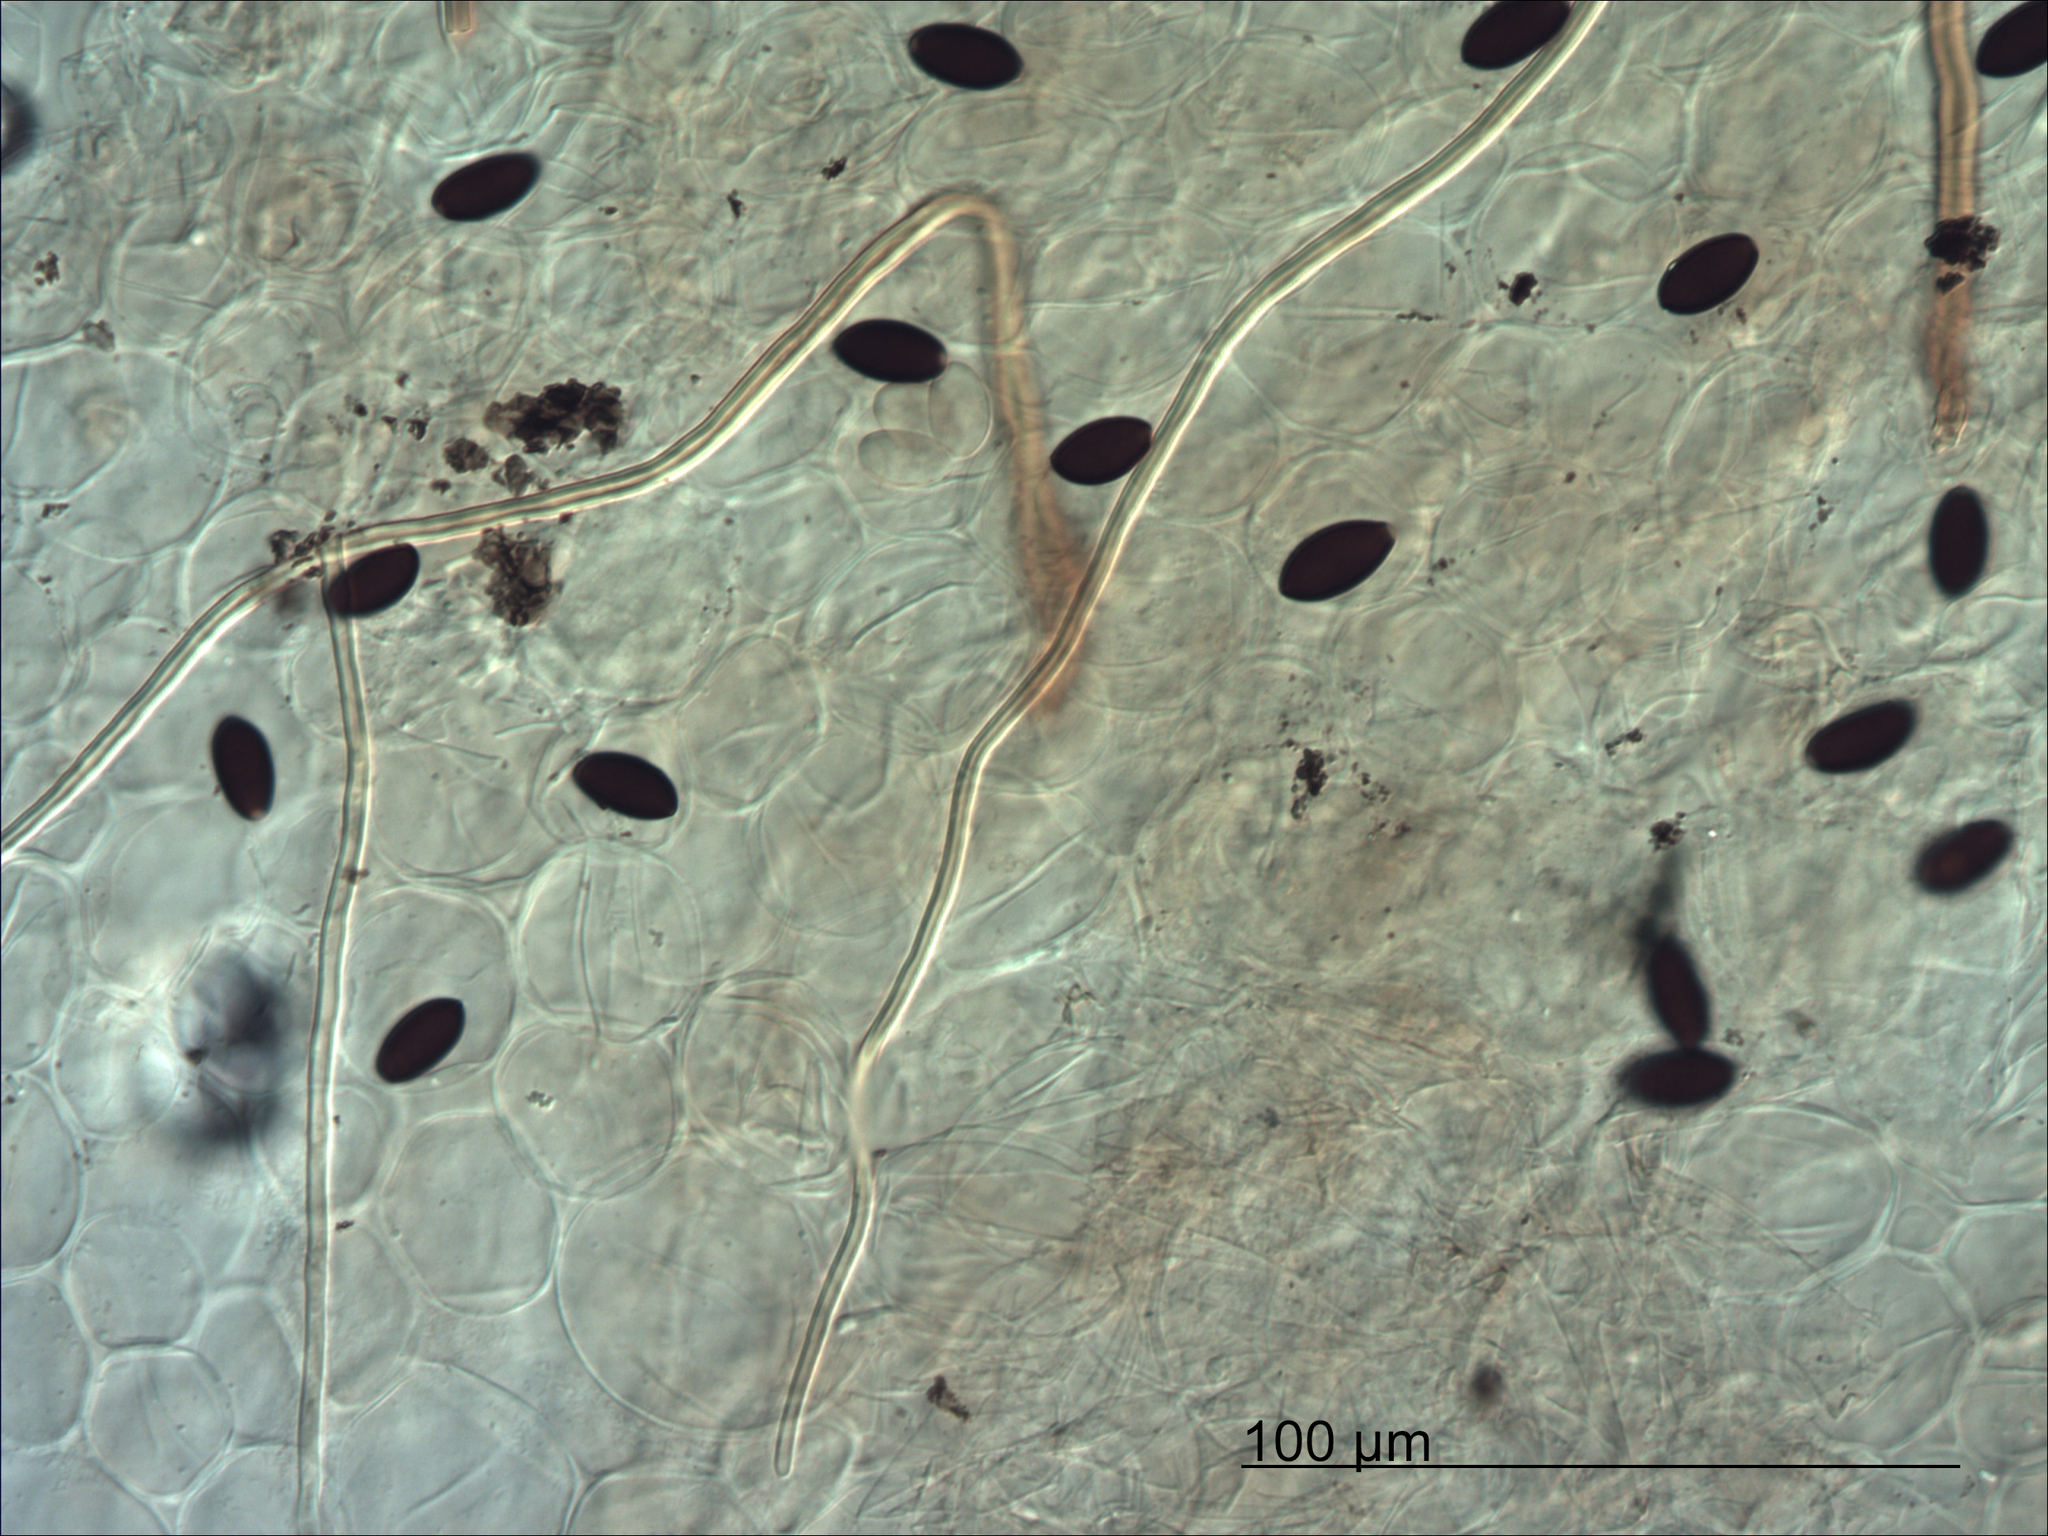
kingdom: Fungi
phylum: Basidiomycota
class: Agaricomycetes
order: Agaricales
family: Psathyrellaceae
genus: Parasola
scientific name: Parasola conopilea
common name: Conical brittlestem
